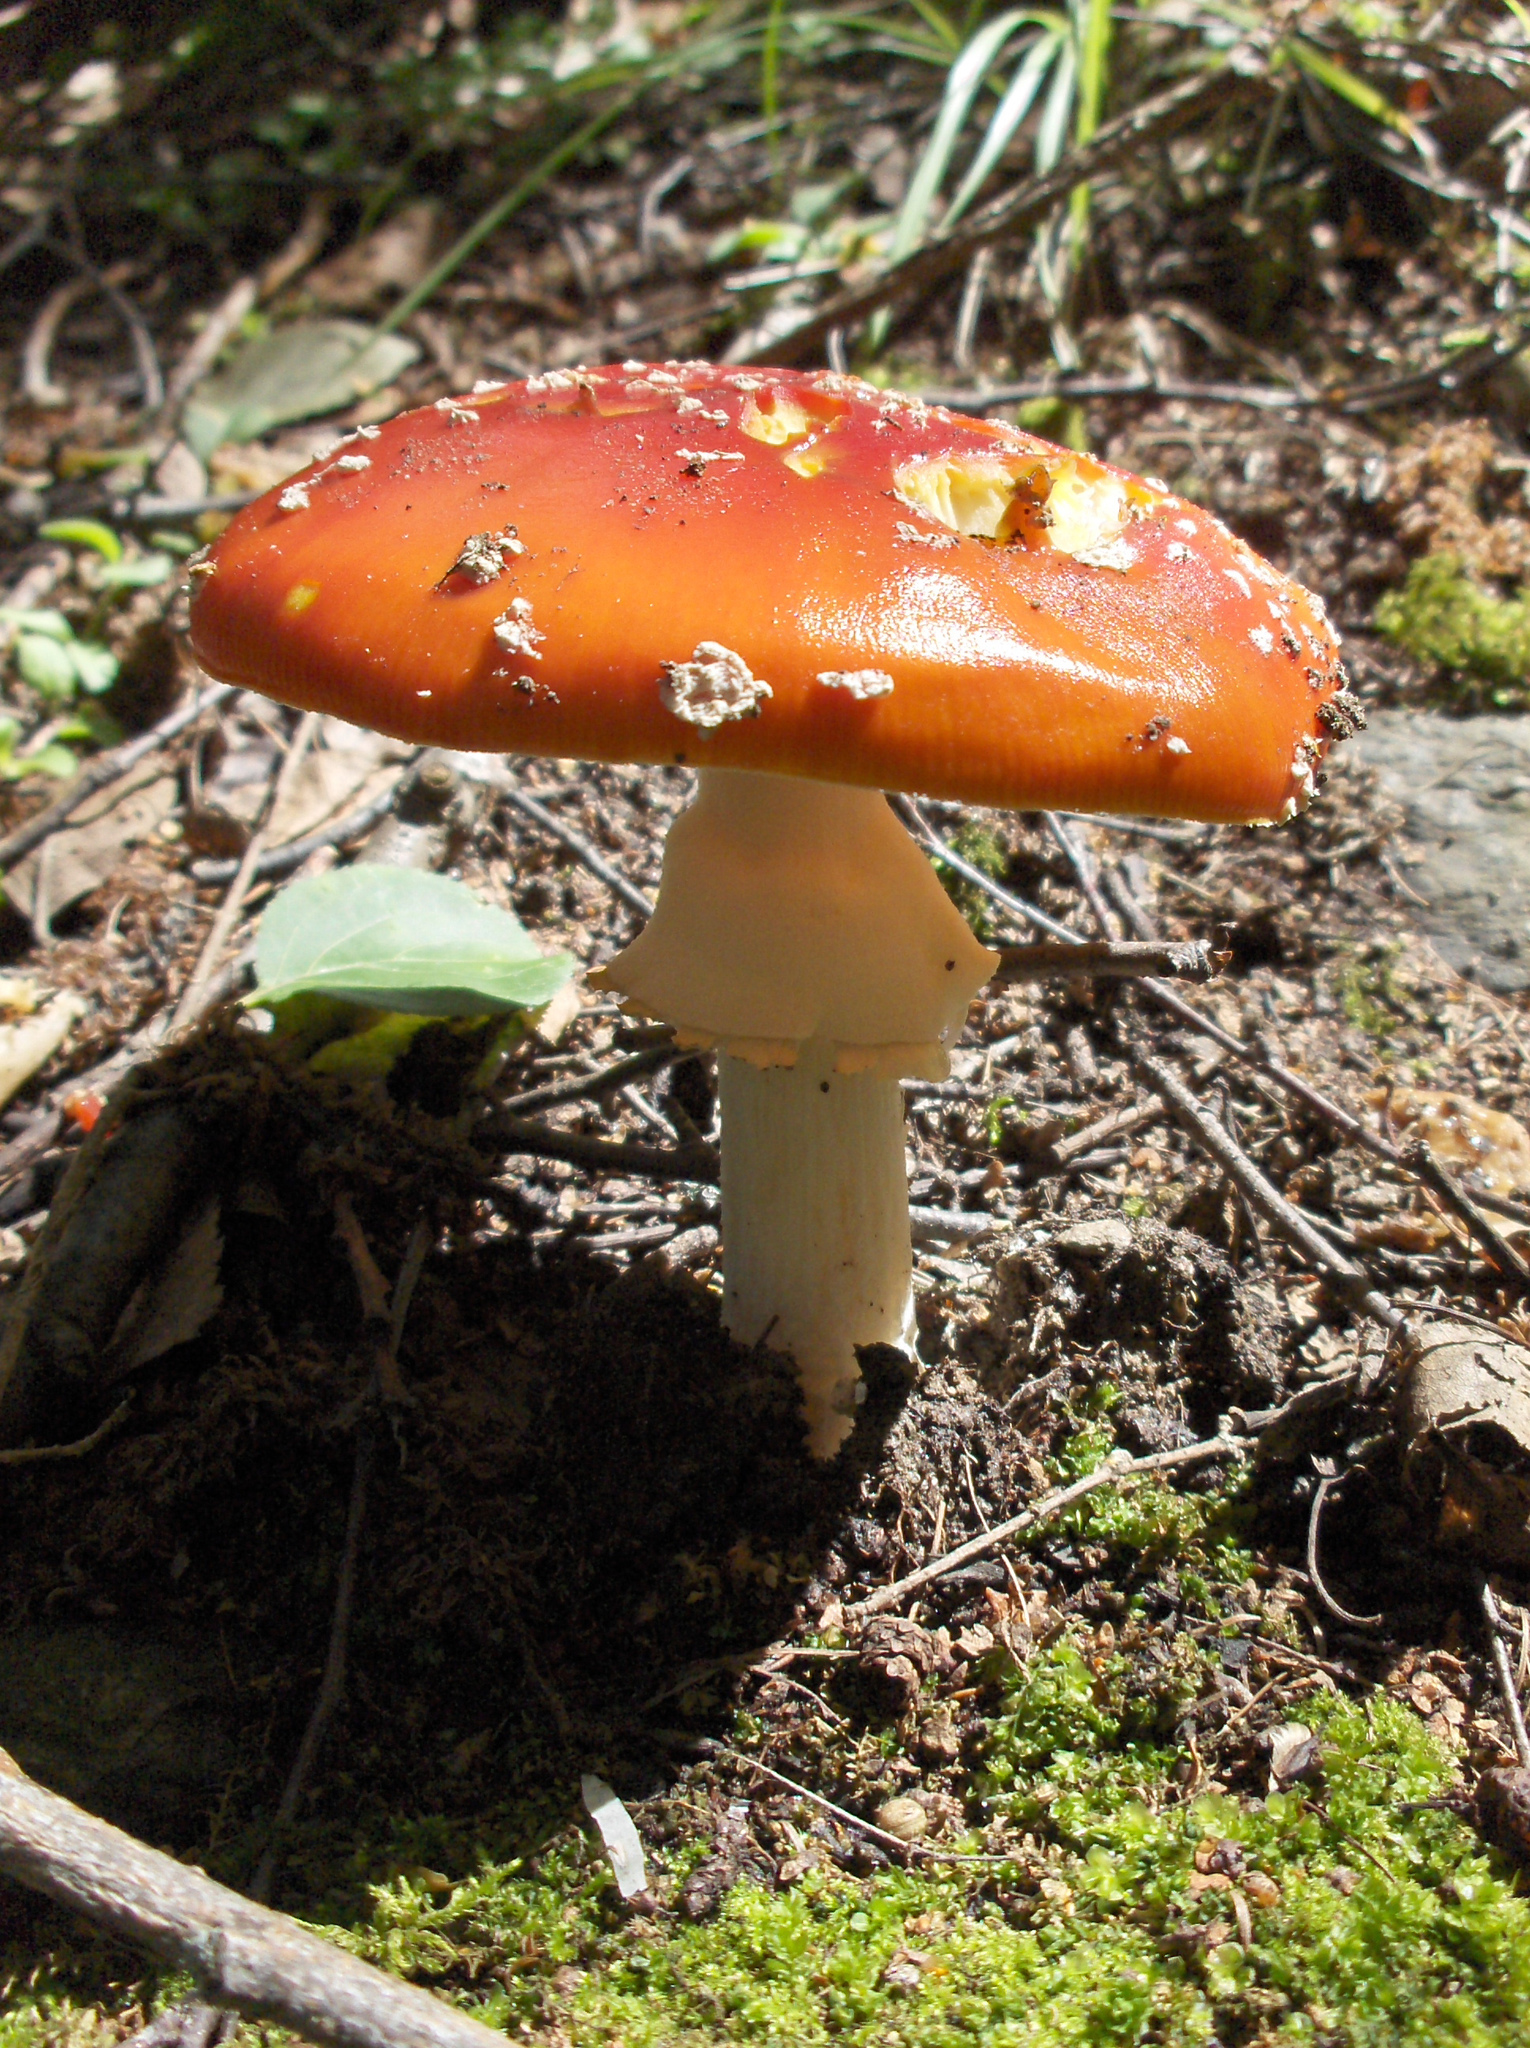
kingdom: Fungi
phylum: Basidiomycota
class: Agaricomycetes
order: Agaricales
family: Amanitaceae
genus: Amanita
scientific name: Amanita muscaria
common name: Fly agaric
